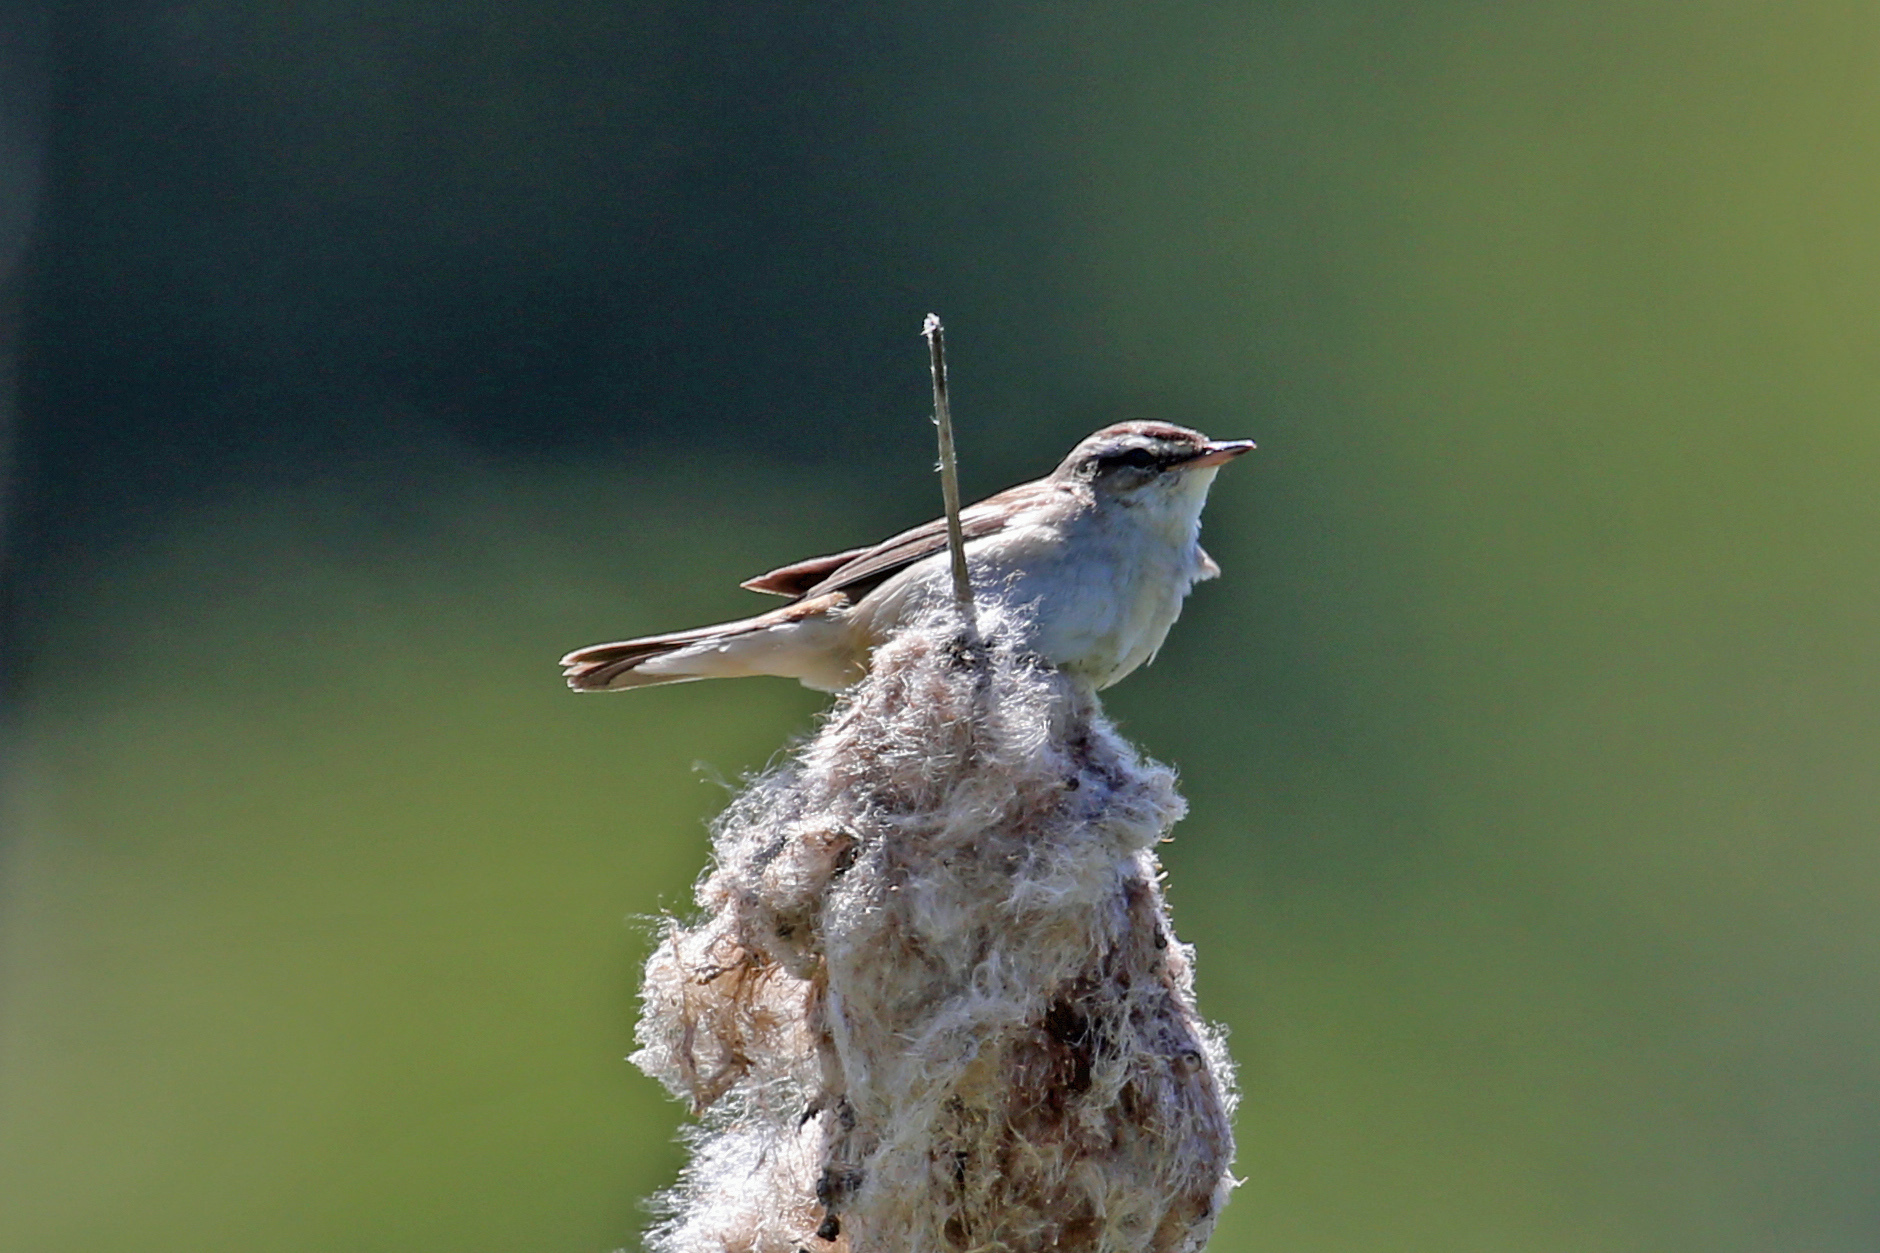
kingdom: Animalia
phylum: Chordata
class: Aves
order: Passeriformes
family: Acrocephalidae
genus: Acrocephalus
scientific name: Acrocephalus schoenobaenus
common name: Sedge warbler
